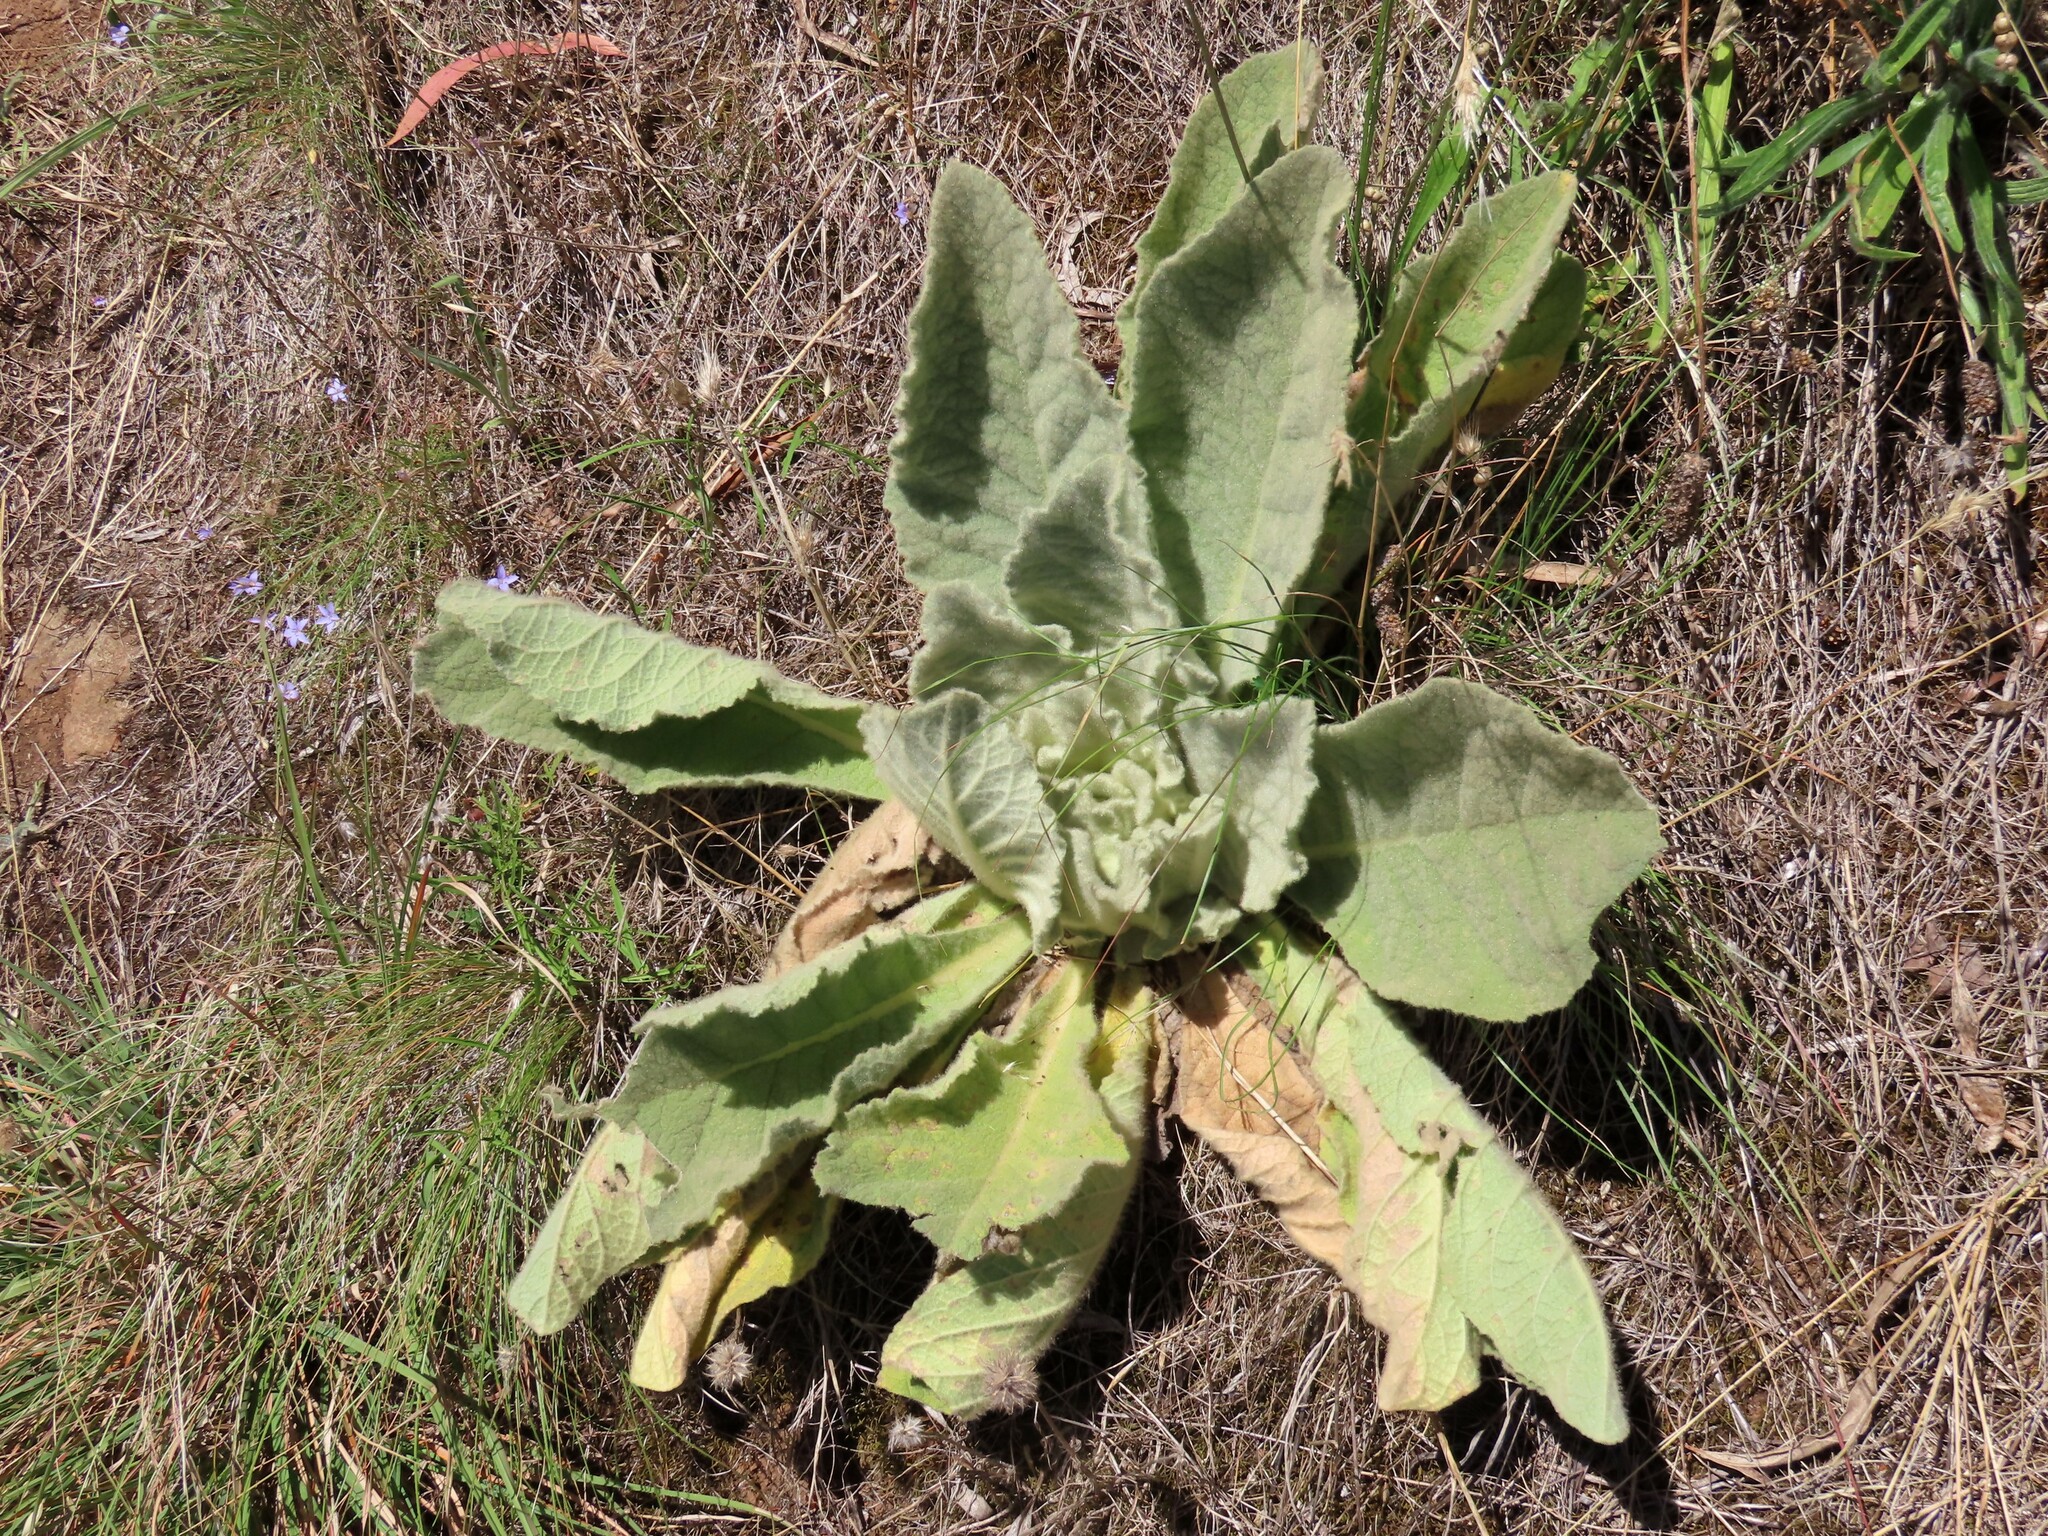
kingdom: Plantae
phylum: Tracheophyta
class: Magnoliopsida
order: Lamiales
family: Scrophulariaceae
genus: Verbascum
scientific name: Verbascum thapsus
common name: Common mullein
